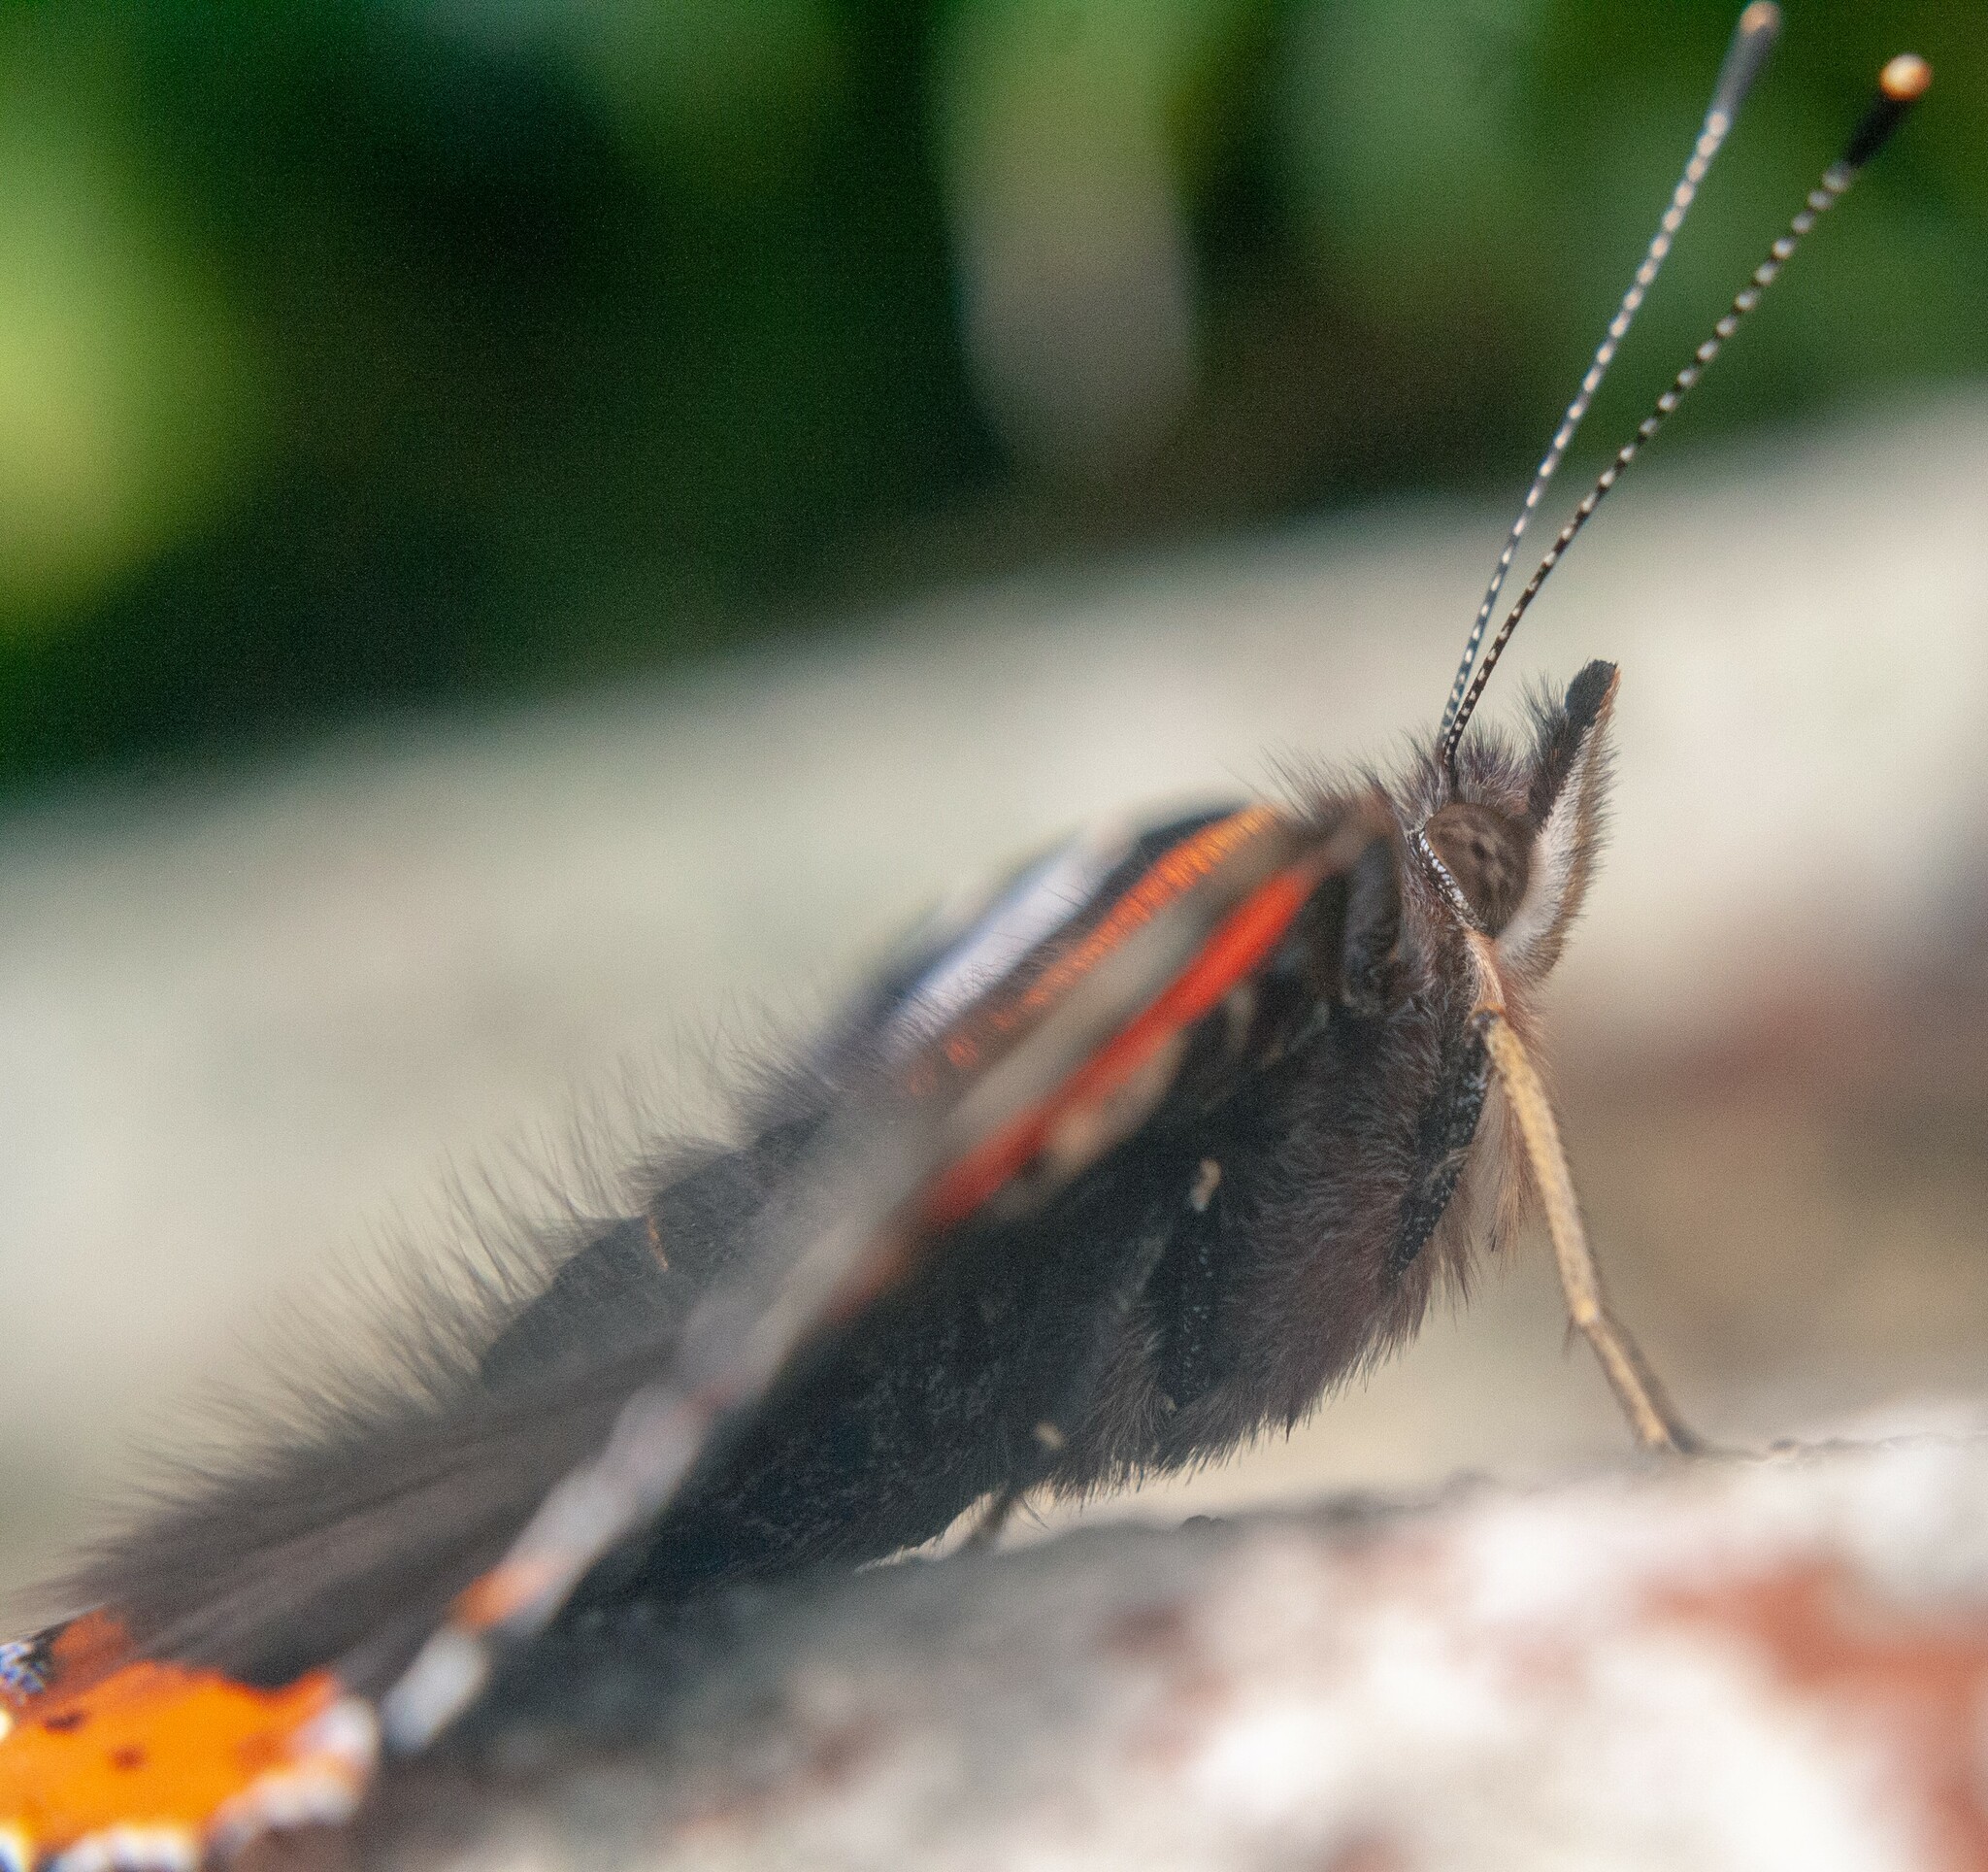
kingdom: Animalia
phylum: Arthropoda
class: Insecta
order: Lepidoptera
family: Nymphalidae
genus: Vanessa
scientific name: Vanessa atalanta
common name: Red admiral
